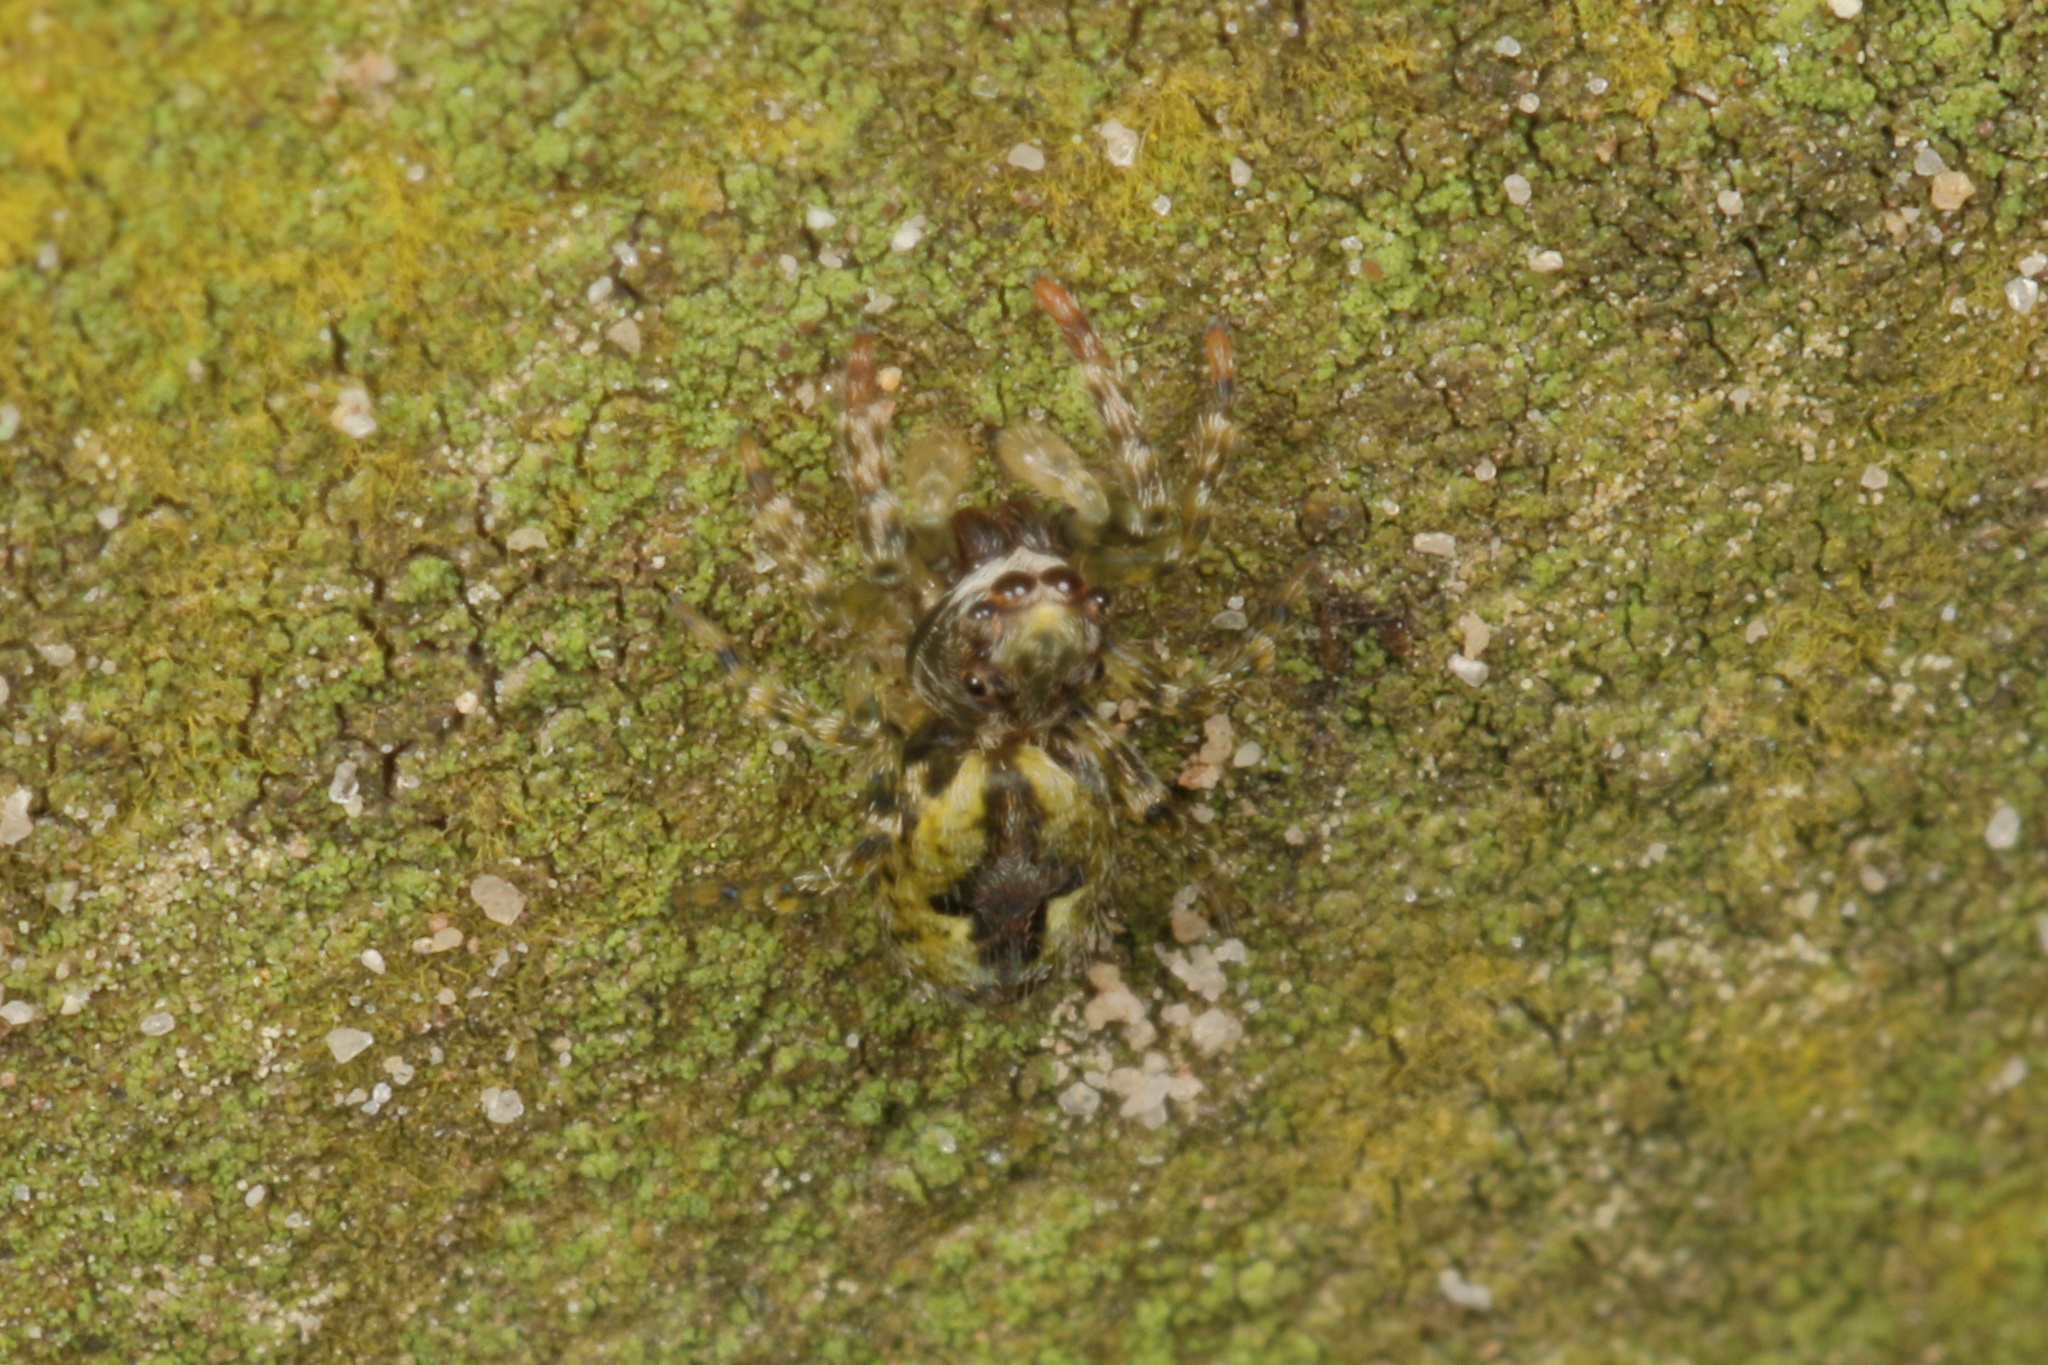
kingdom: Animalia
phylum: Arthropoda
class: Arachnida
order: Araneae
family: Salticidae
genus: Hinewaia
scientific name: Hinewaia embolica
